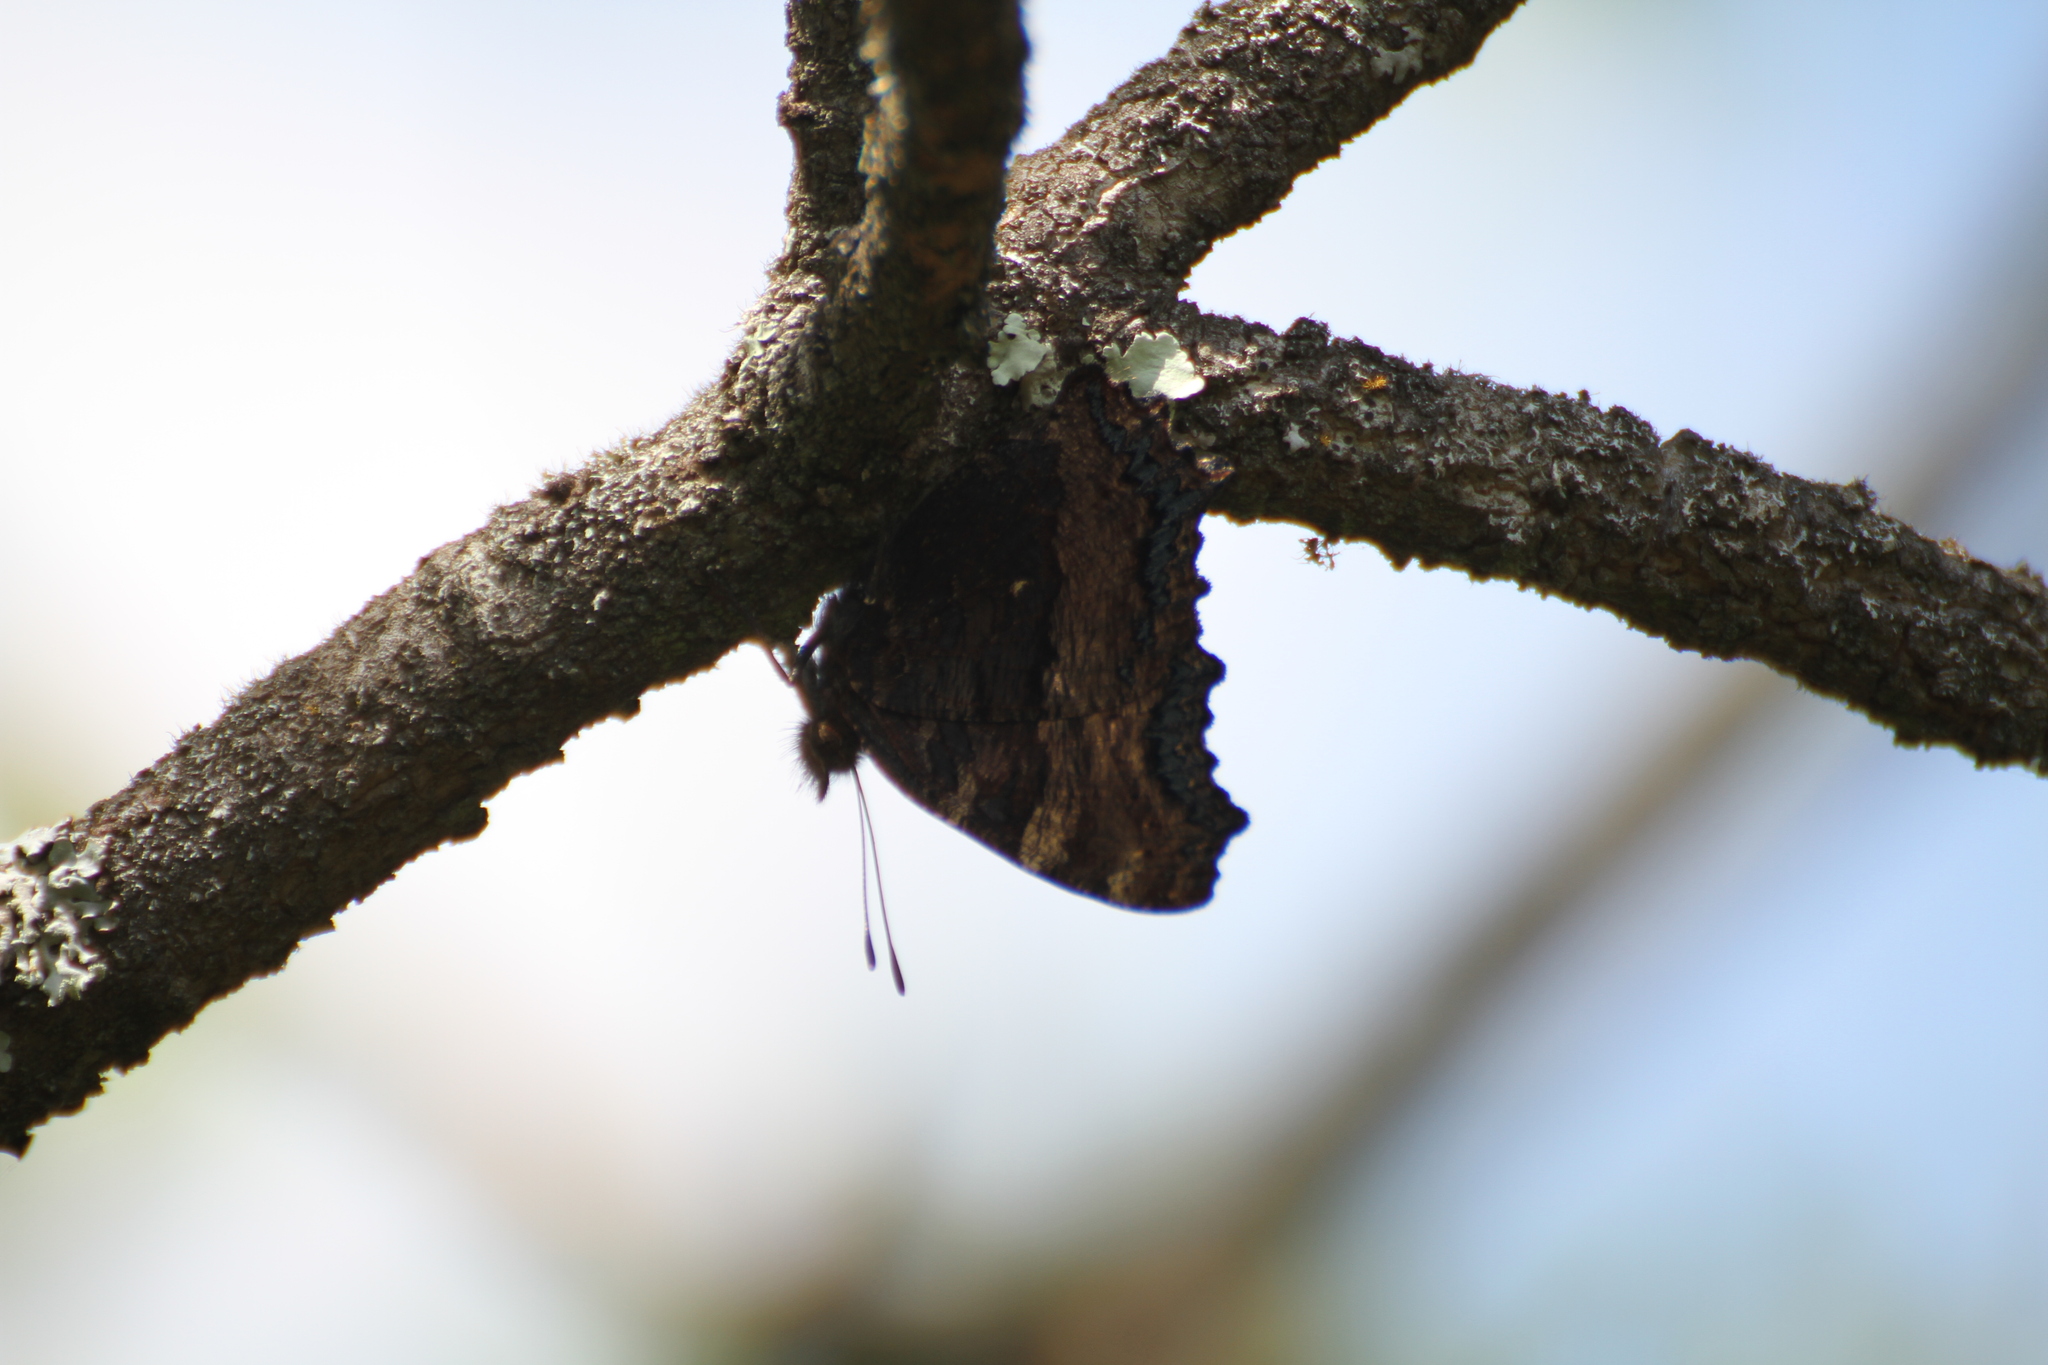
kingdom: Animalia
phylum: Arthropoda
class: Insecta
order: Lepidoptera
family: Nymphalidae
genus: Nymphalis
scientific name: Nymphalis polychloros
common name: Large tortoiseshell
